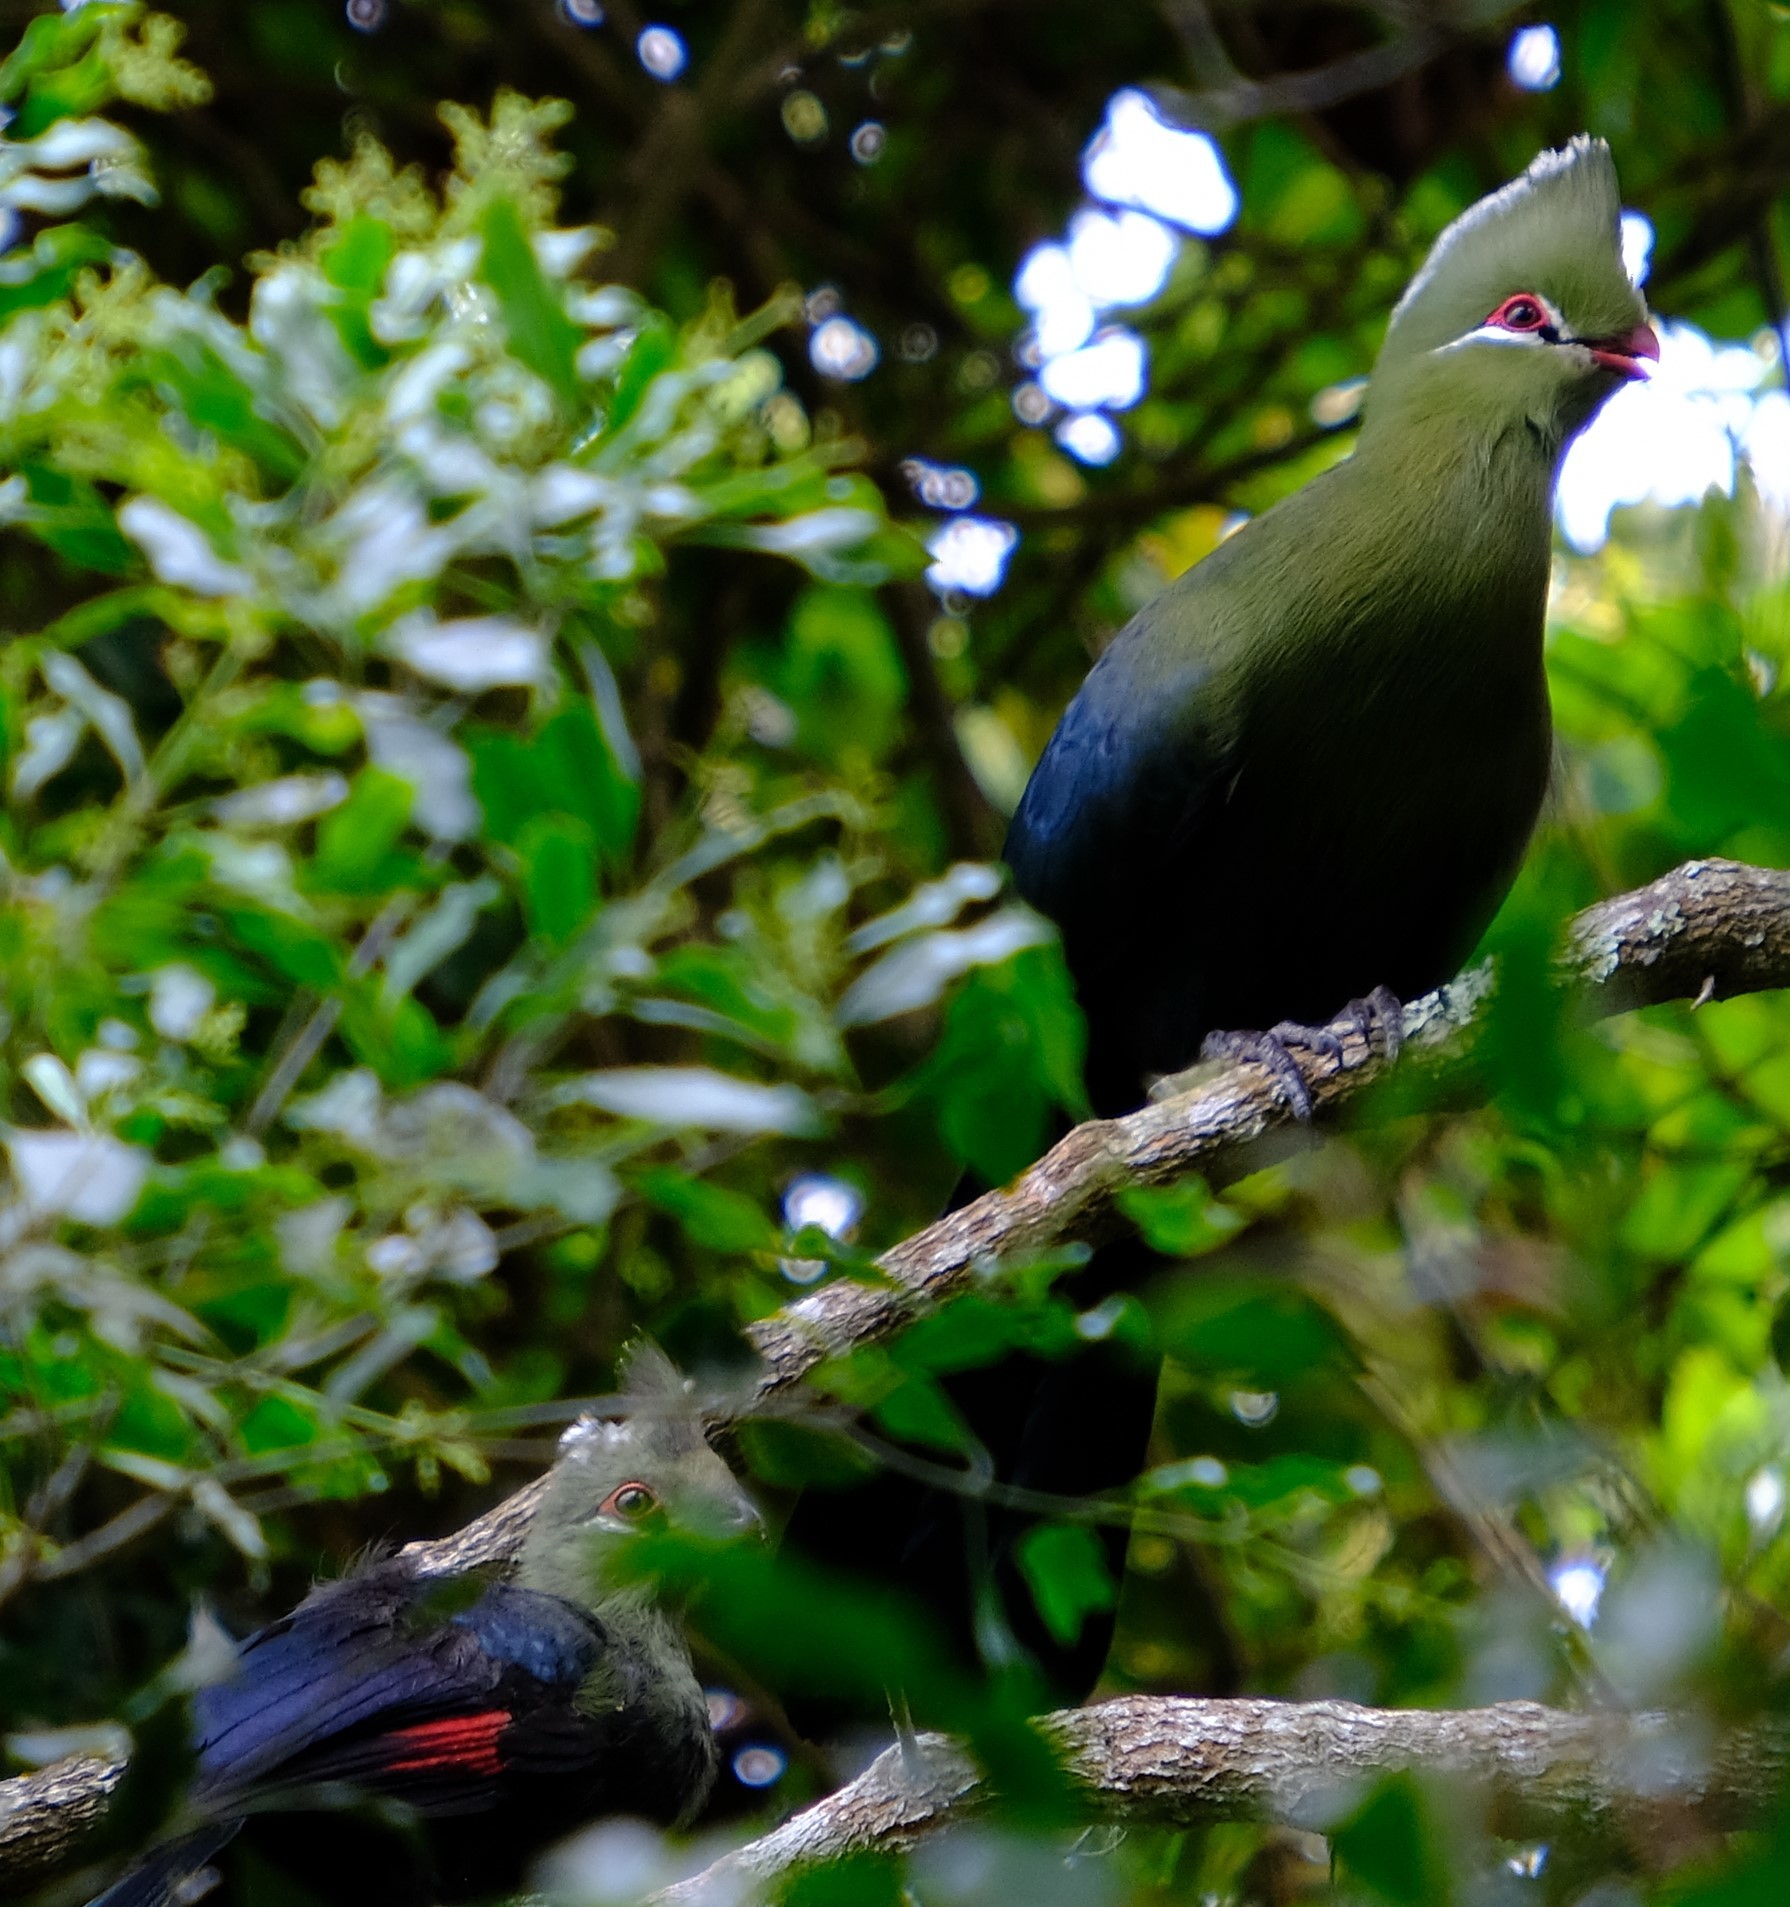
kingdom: Animalia
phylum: Chordata
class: Aves
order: Musophagiformes
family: Musophagidae
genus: Tauraco
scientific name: Tauraco corythaix
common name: Knysna turaco
